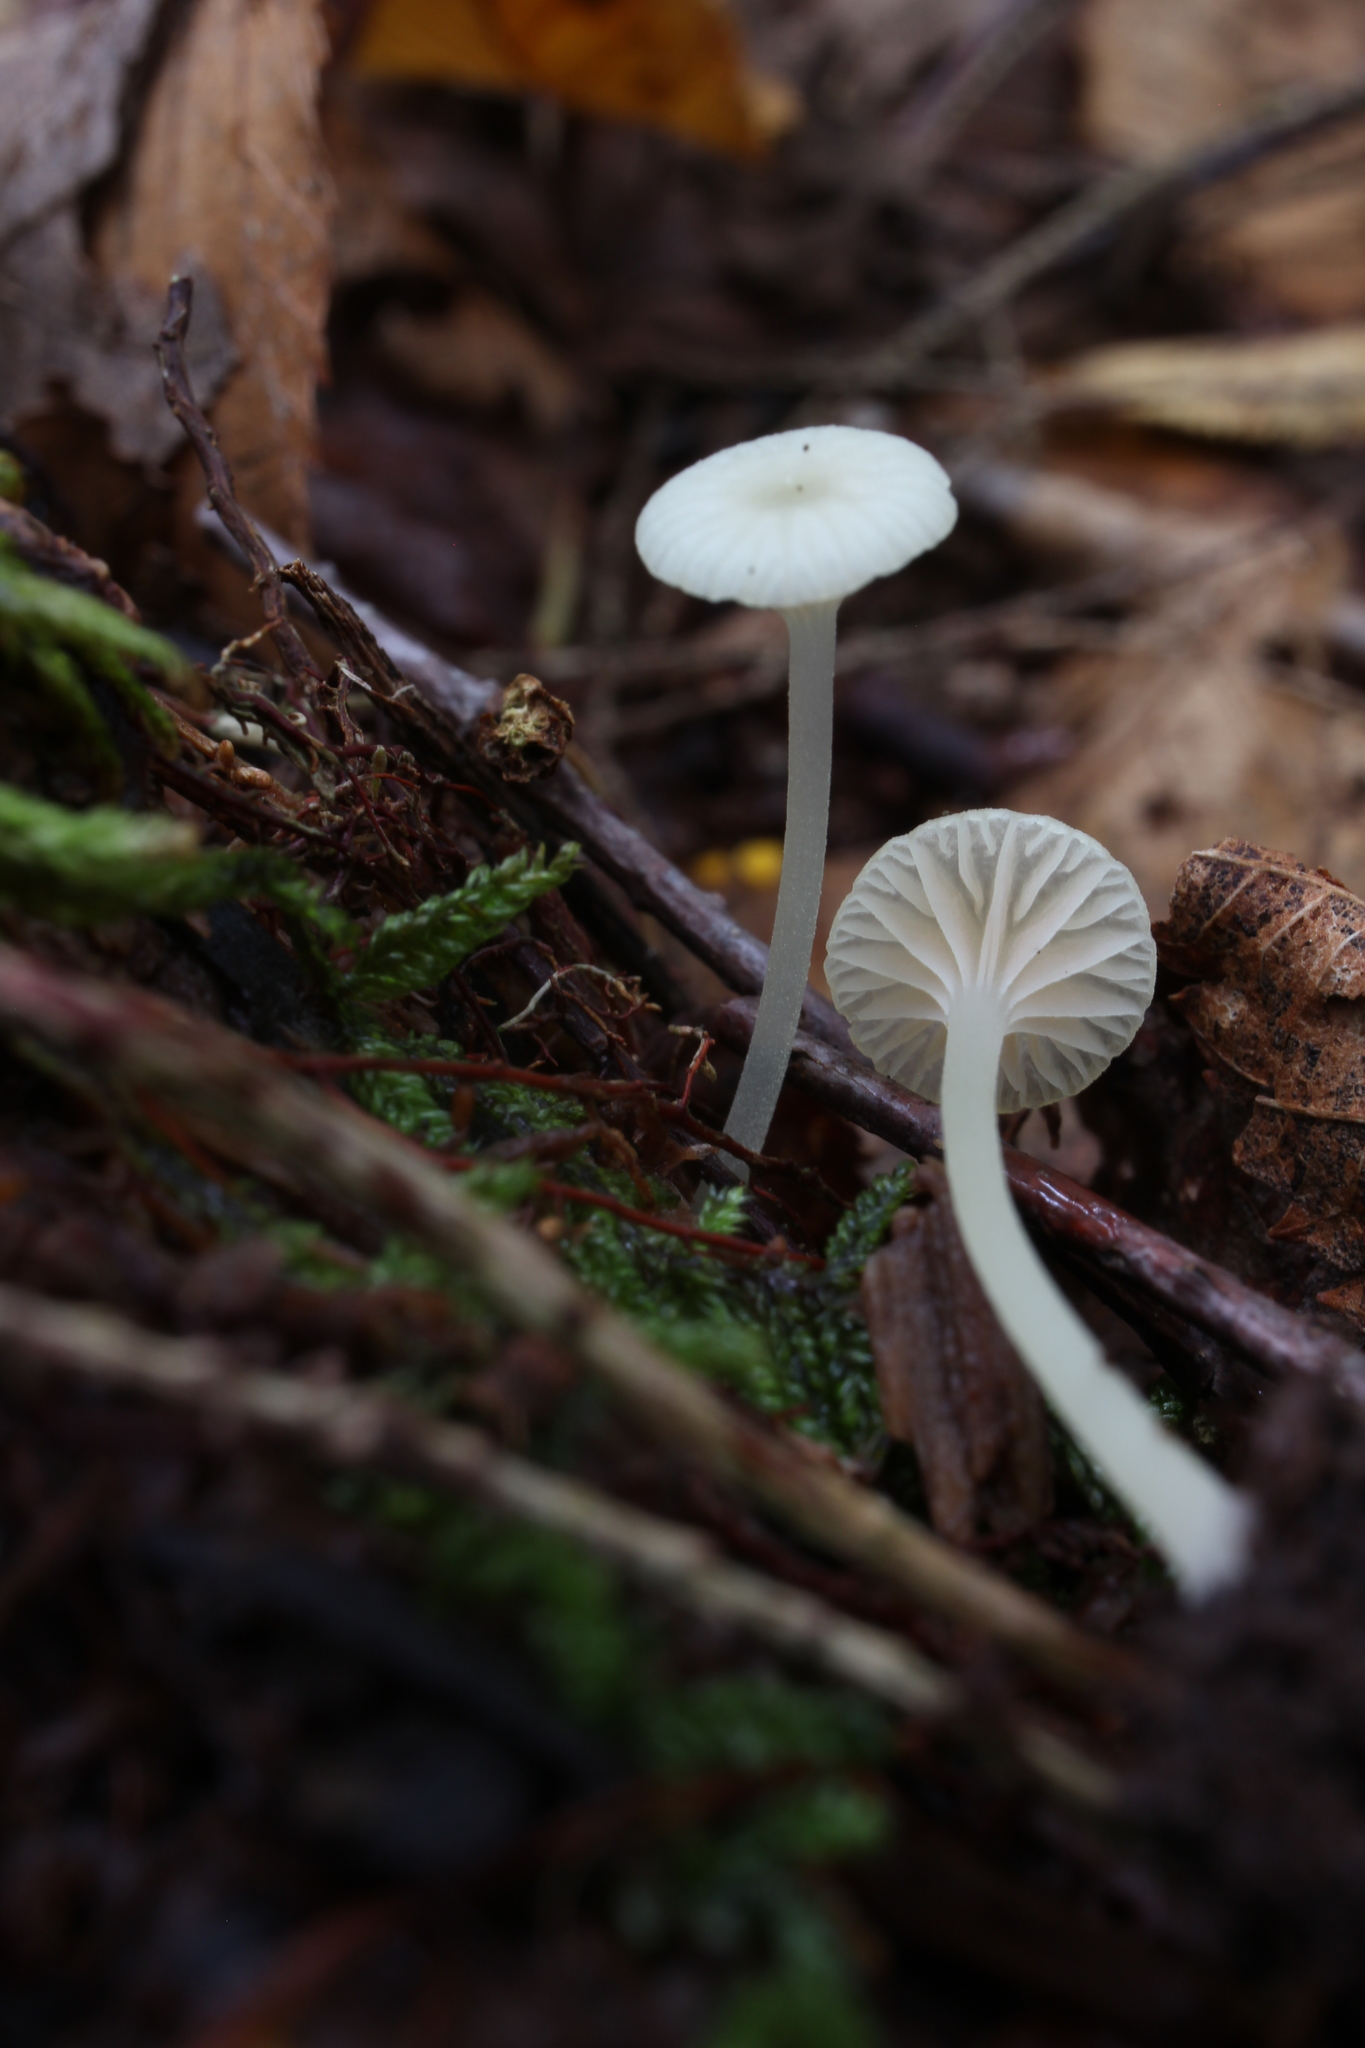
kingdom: Fungi
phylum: Basidiomycota
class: Agaricomycetes
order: Agaricales
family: Entolomataceae
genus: Entoloma
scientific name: Entoloma sericellum
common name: Cream pinkgill
